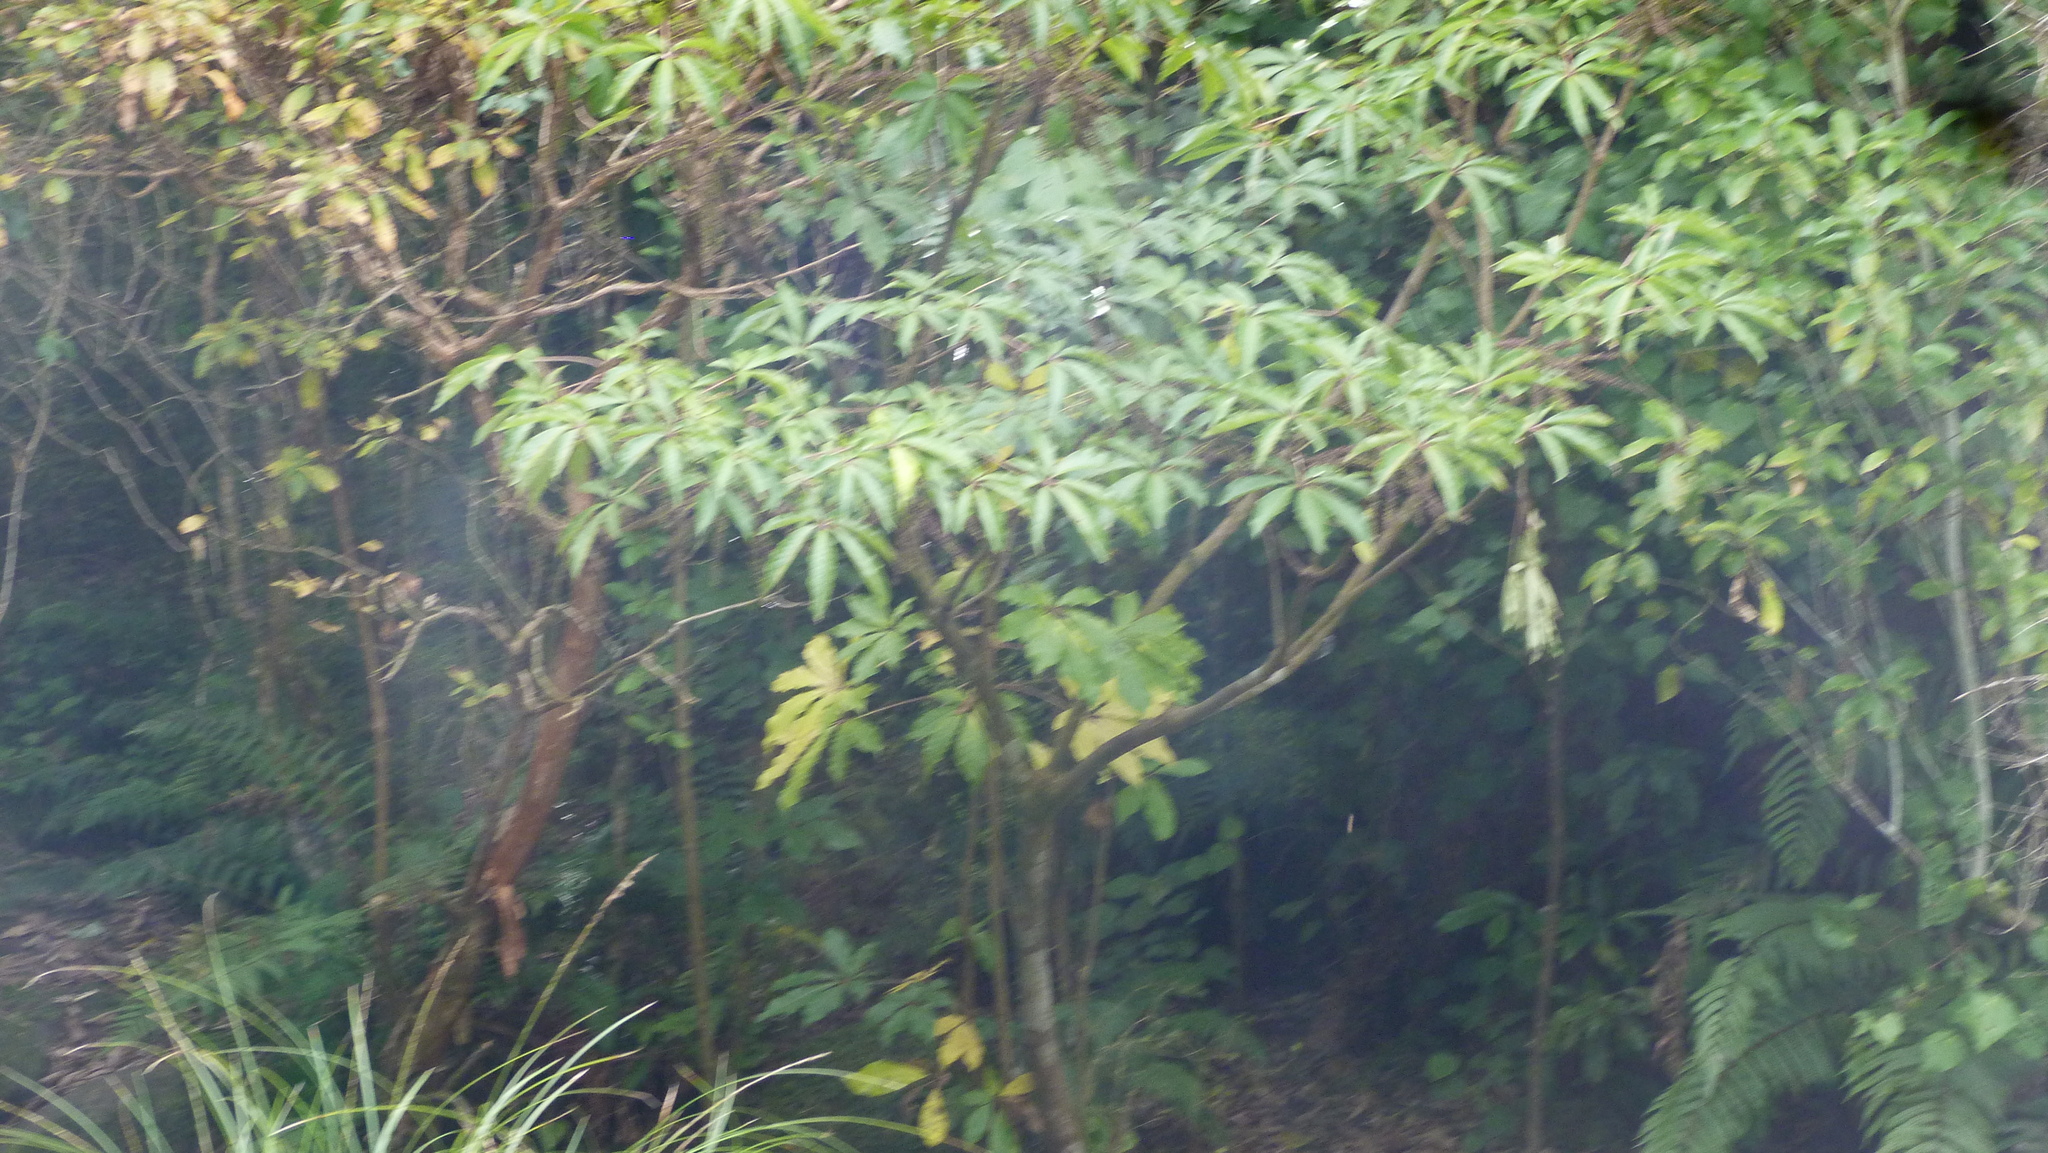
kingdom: Plantae
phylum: Tracheophyta
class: Magnoliopsida
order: Apiales
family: Araliaceae
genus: Schefflera
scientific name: Schefflera digitata
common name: Pate
